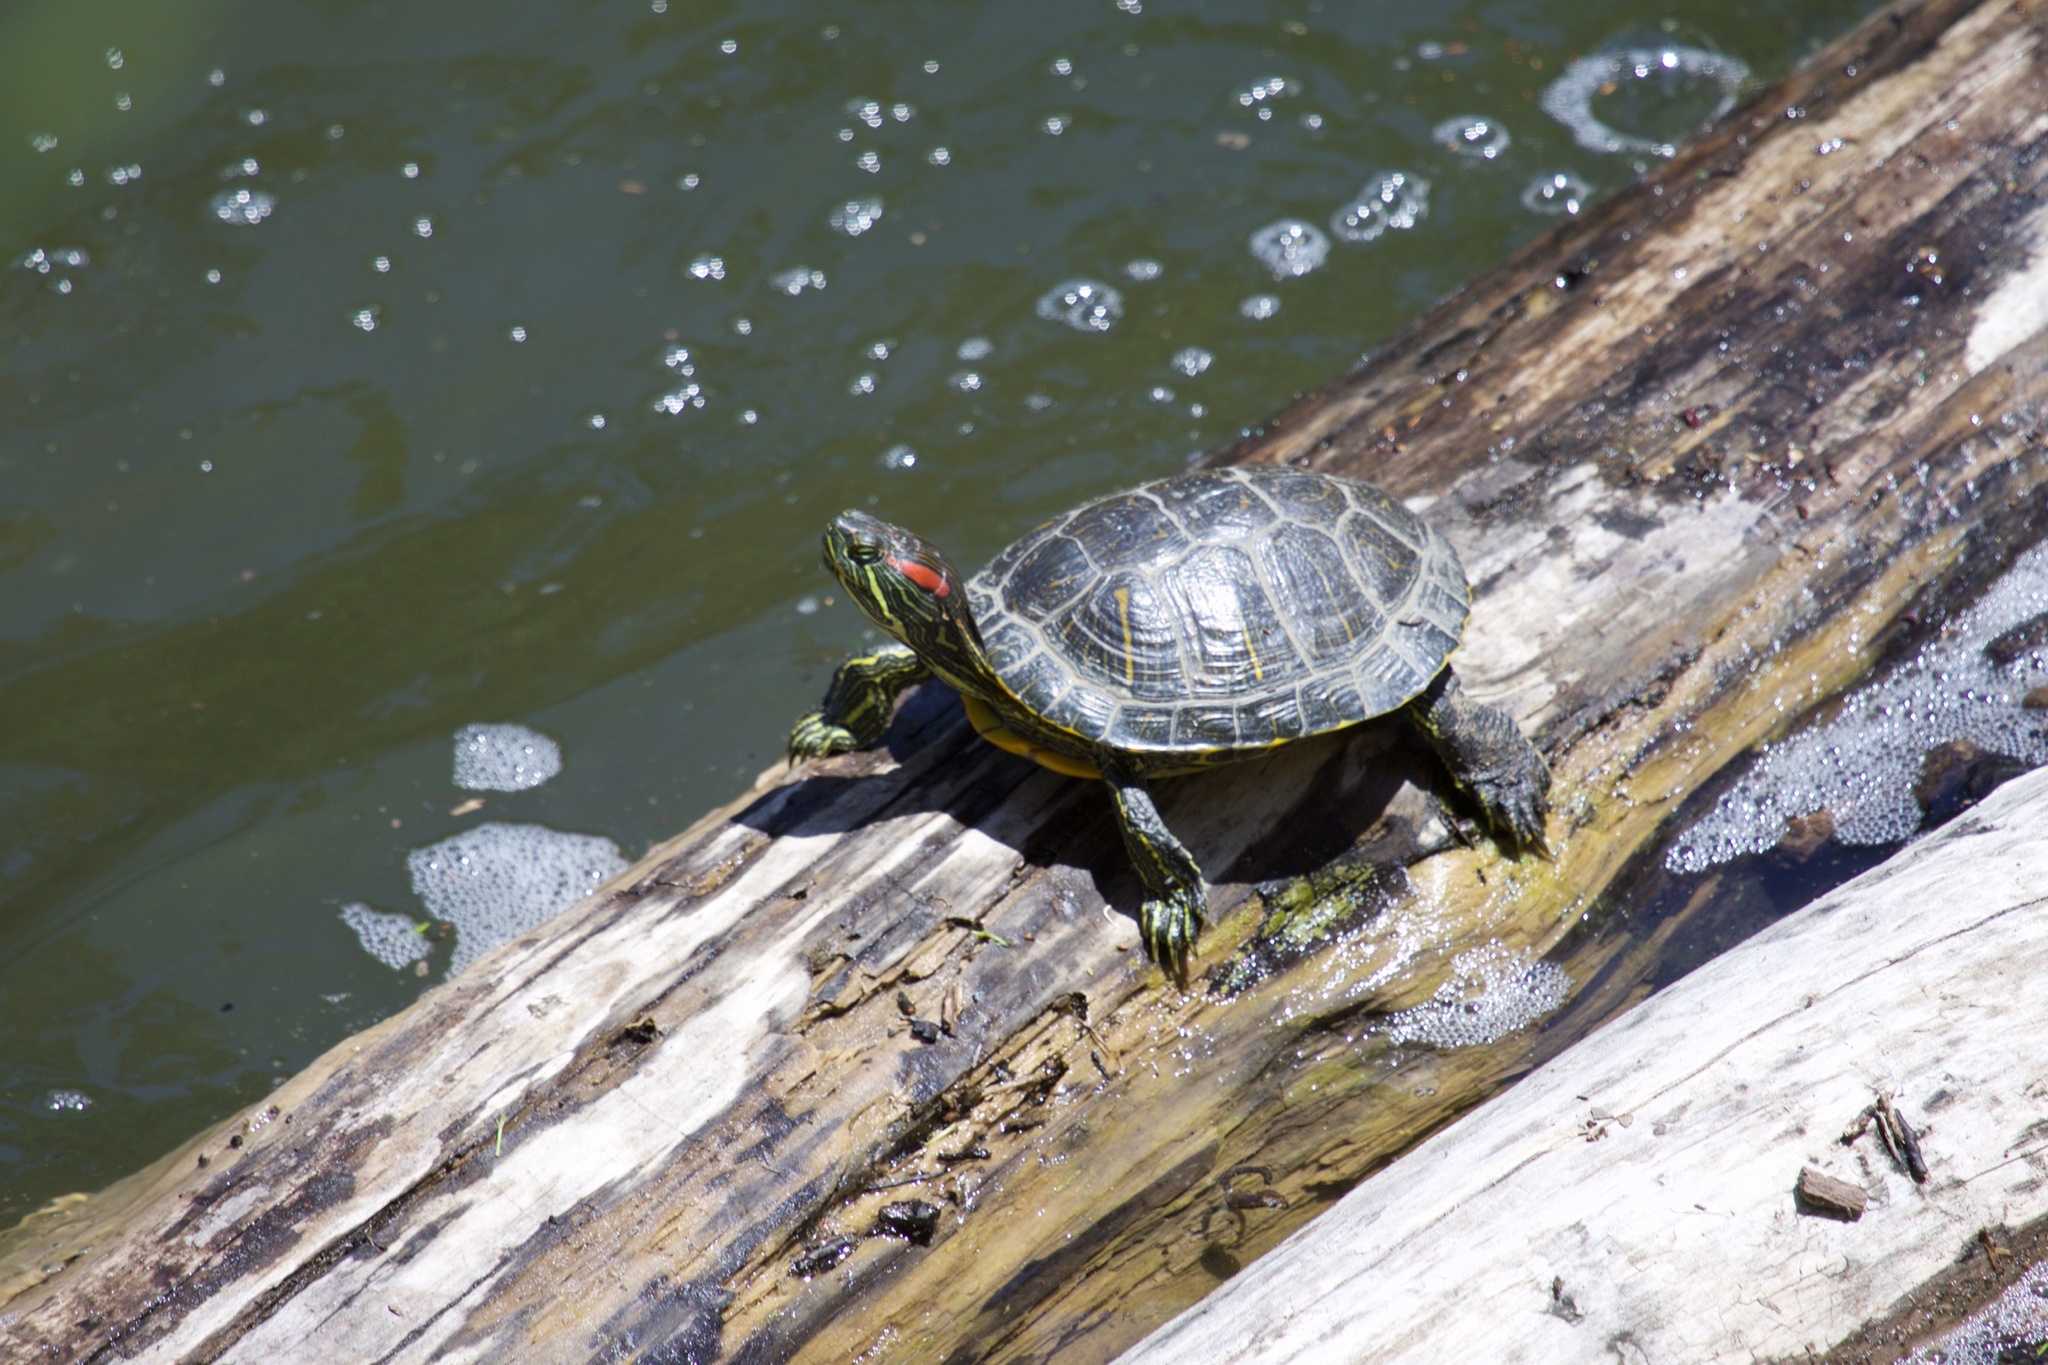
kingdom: Animalia
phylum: Chordata
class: Testudines
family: Emydidae
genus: Trachemys
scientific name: Trachemys scripta
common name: Slider
